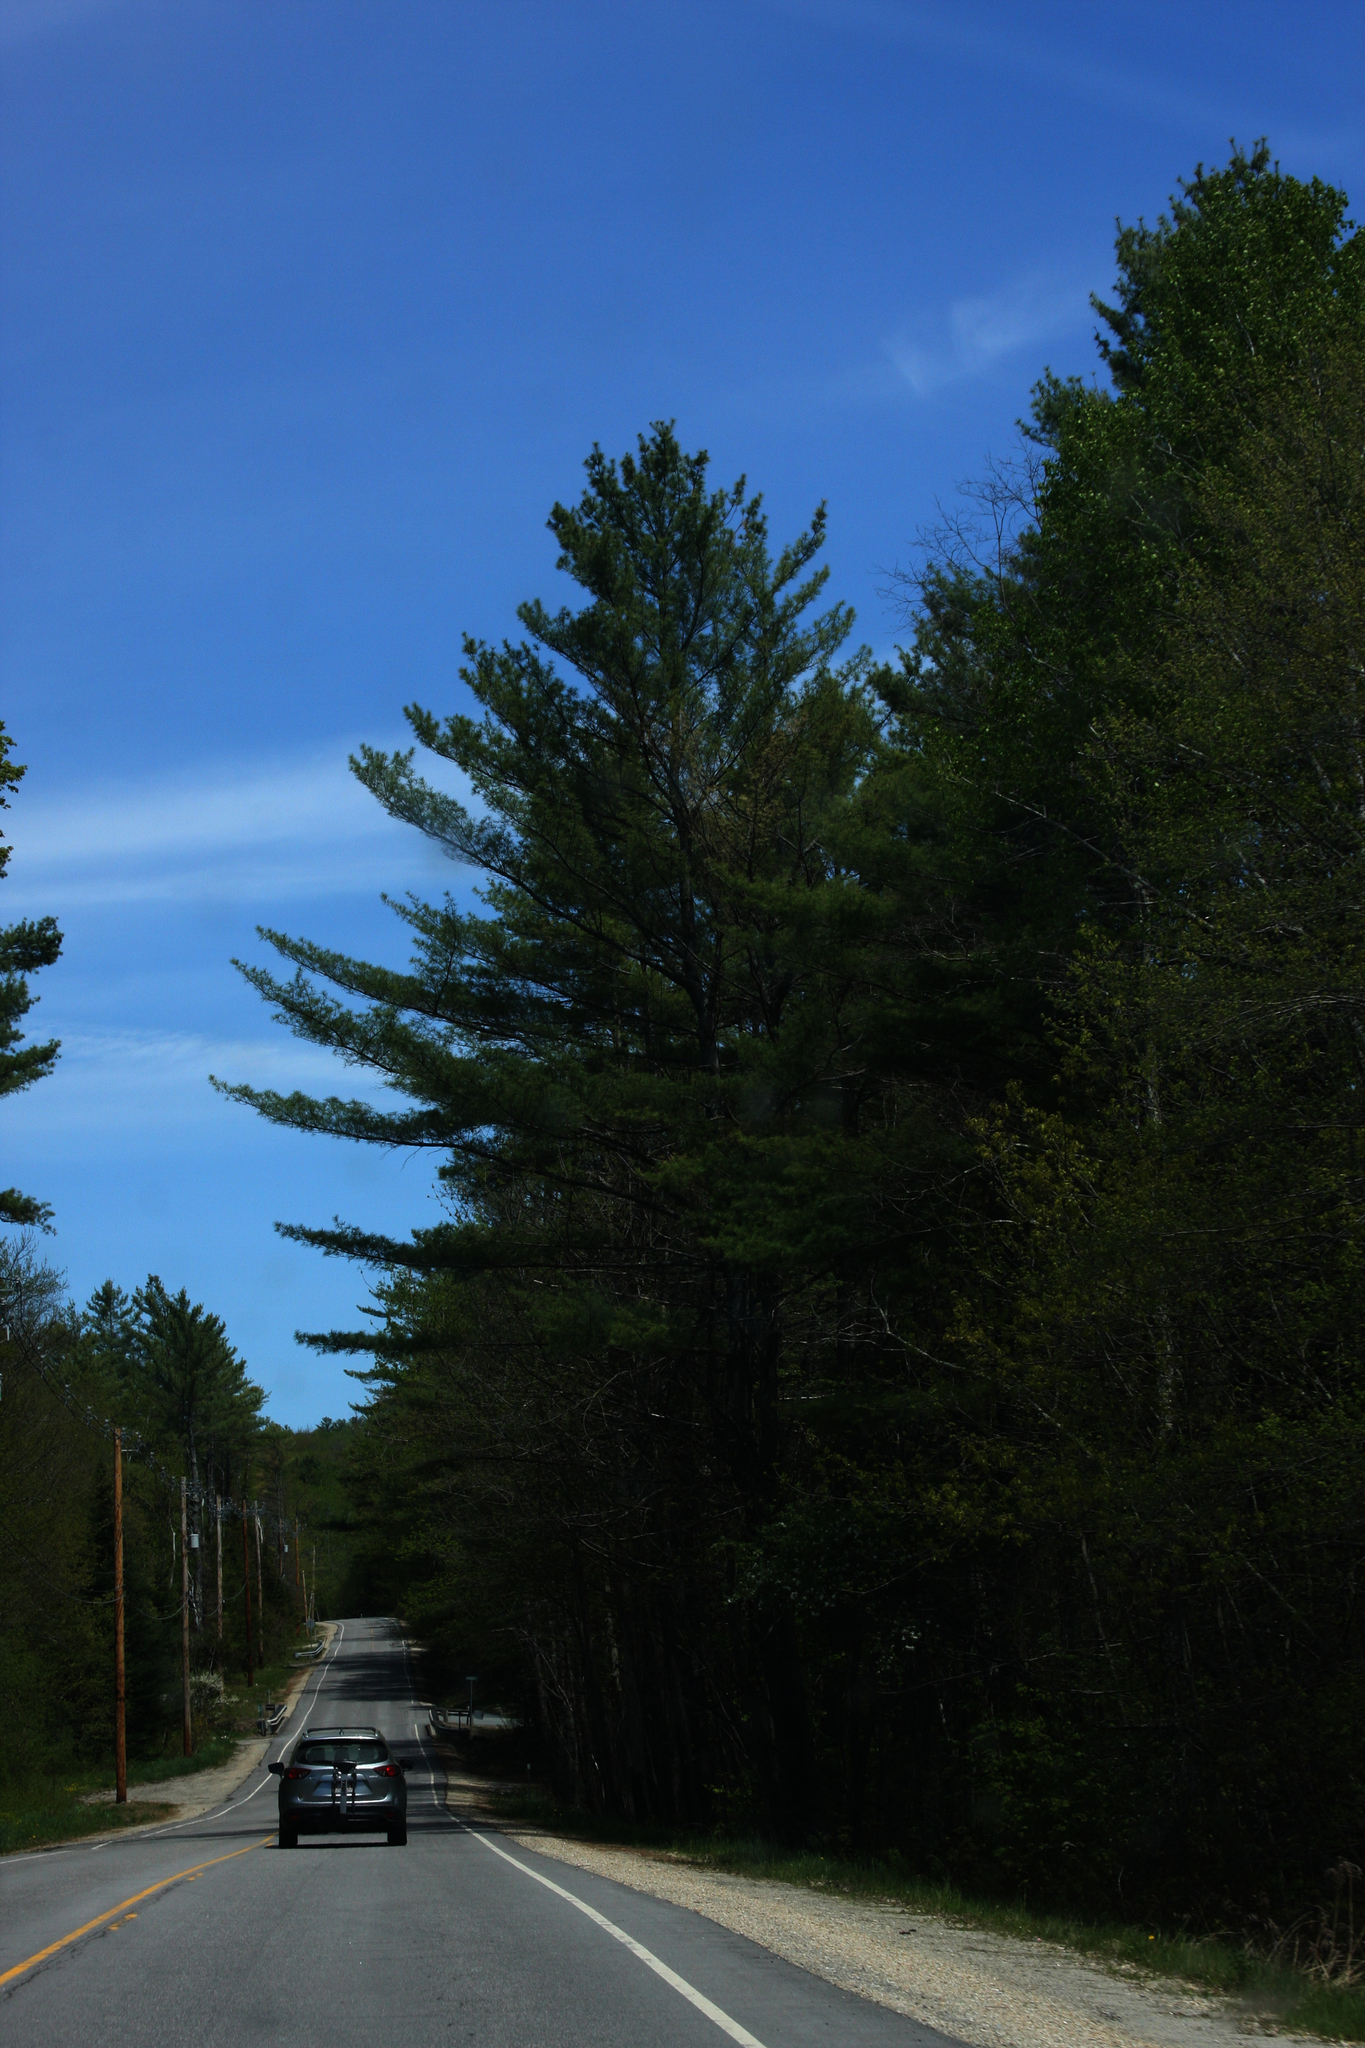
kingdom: Plantae
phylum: Tracheophyta
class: Pinopsida
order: Pinales
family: Pinaceae
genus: Pinus
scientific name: Pinus strobus
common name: Weymouth pine
